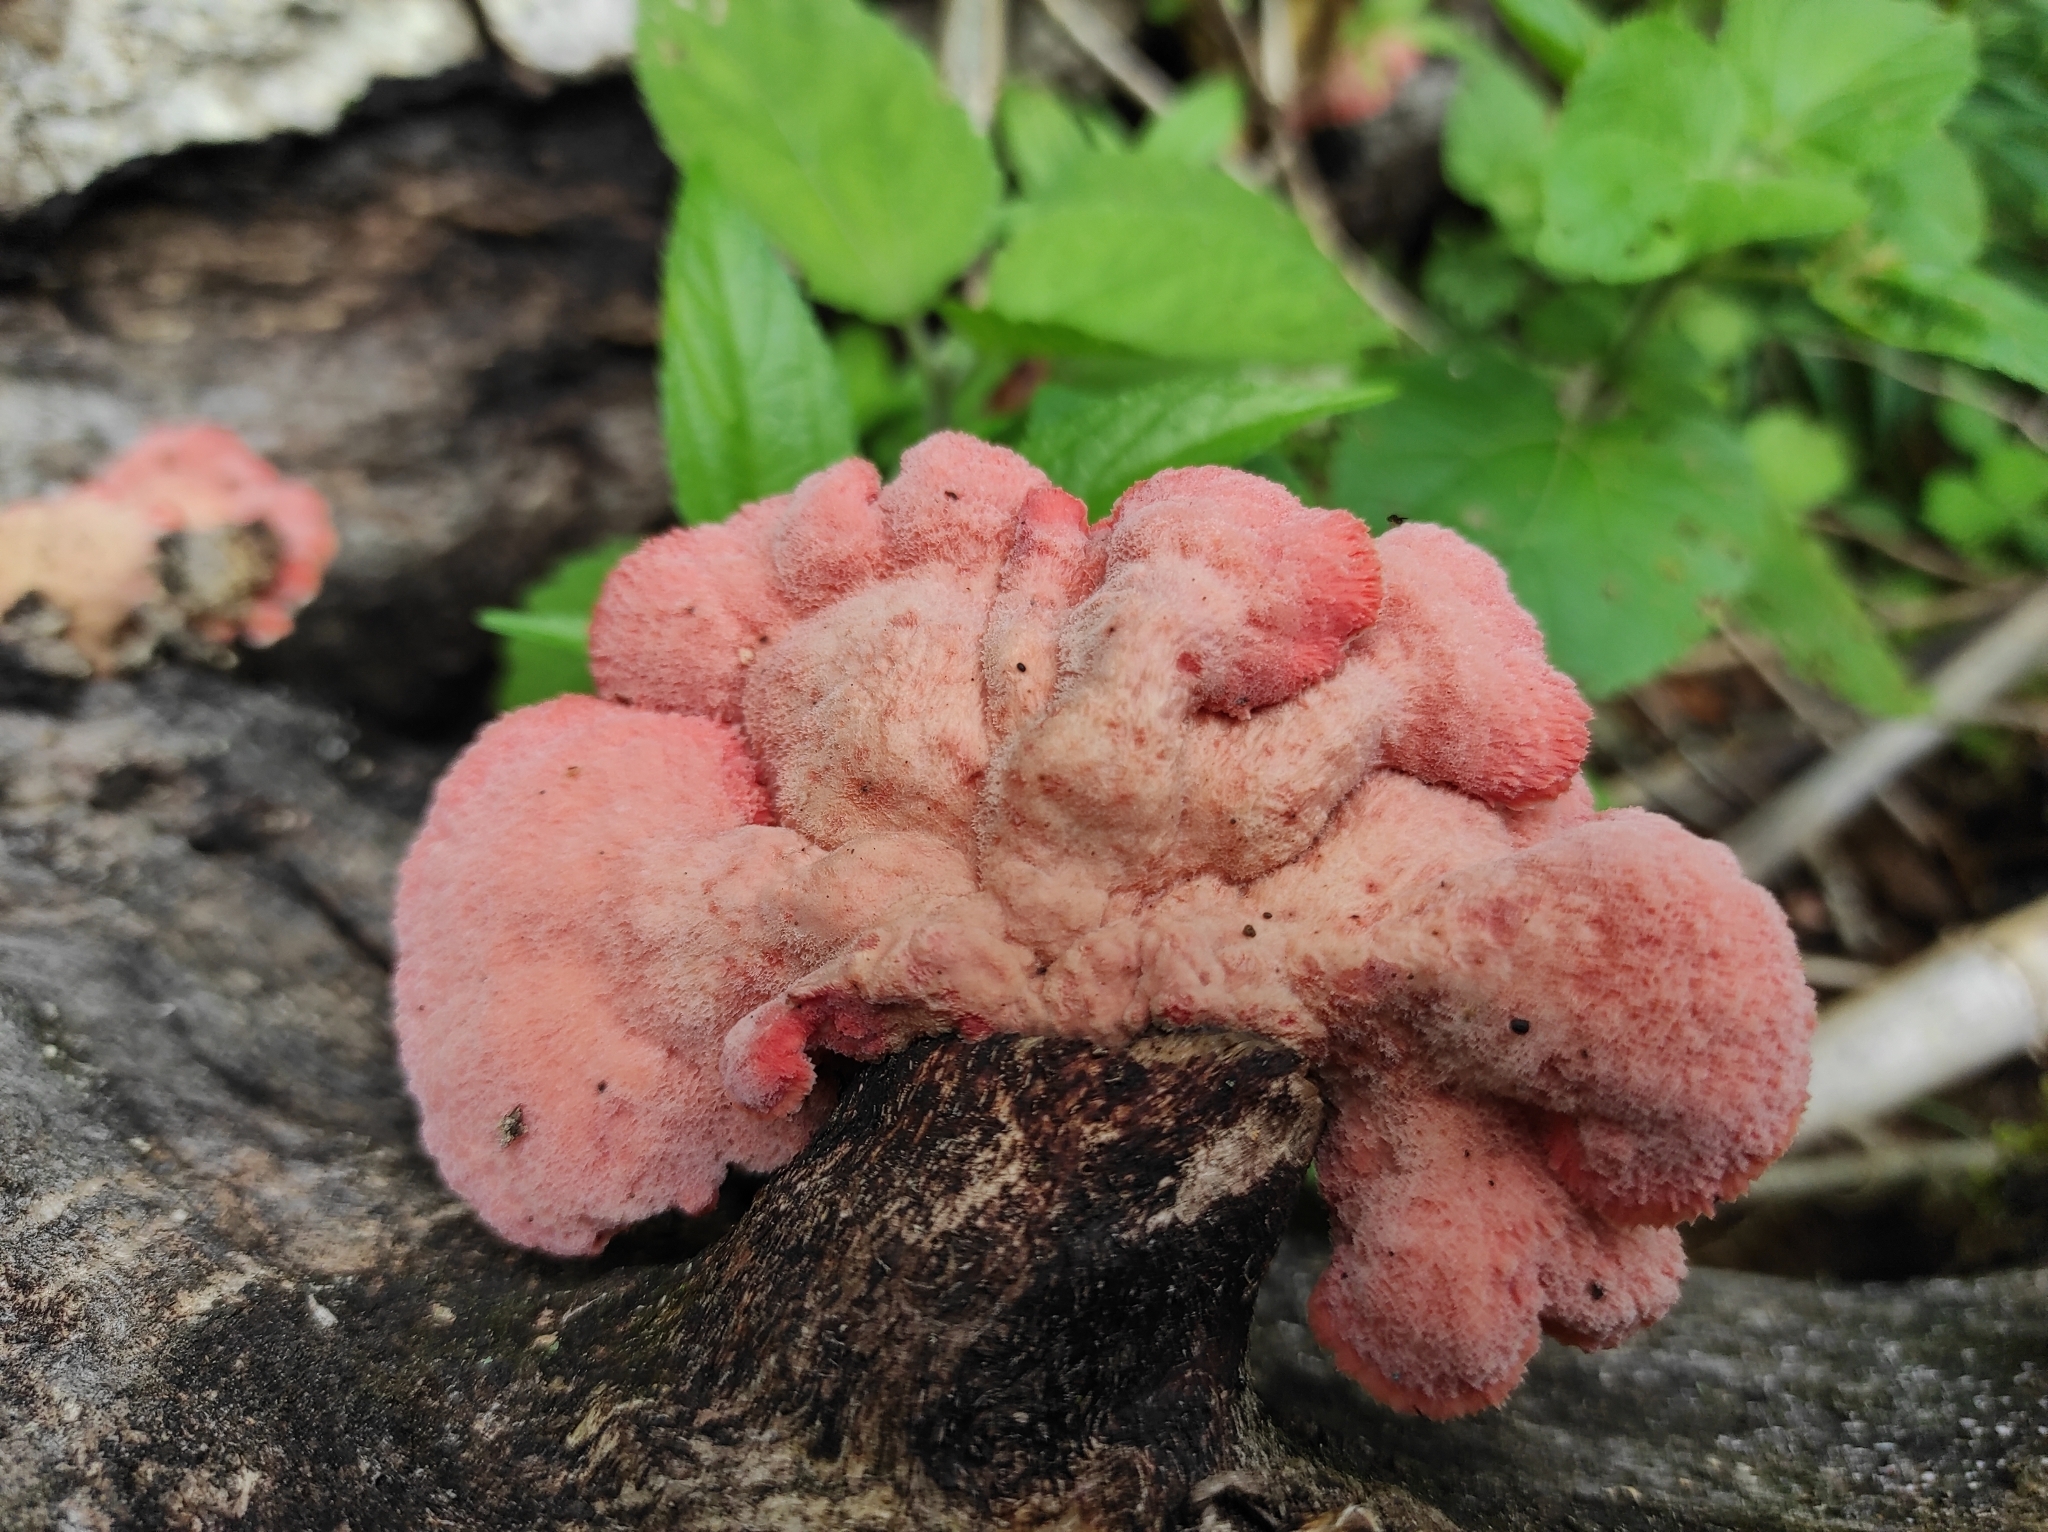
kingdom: Fungi
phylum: Basidiomycota
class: Agaricomycetes
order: Polyporales
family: Irpicaceae
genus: Byssomerulius
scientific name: Byssomerulius incarnatus
